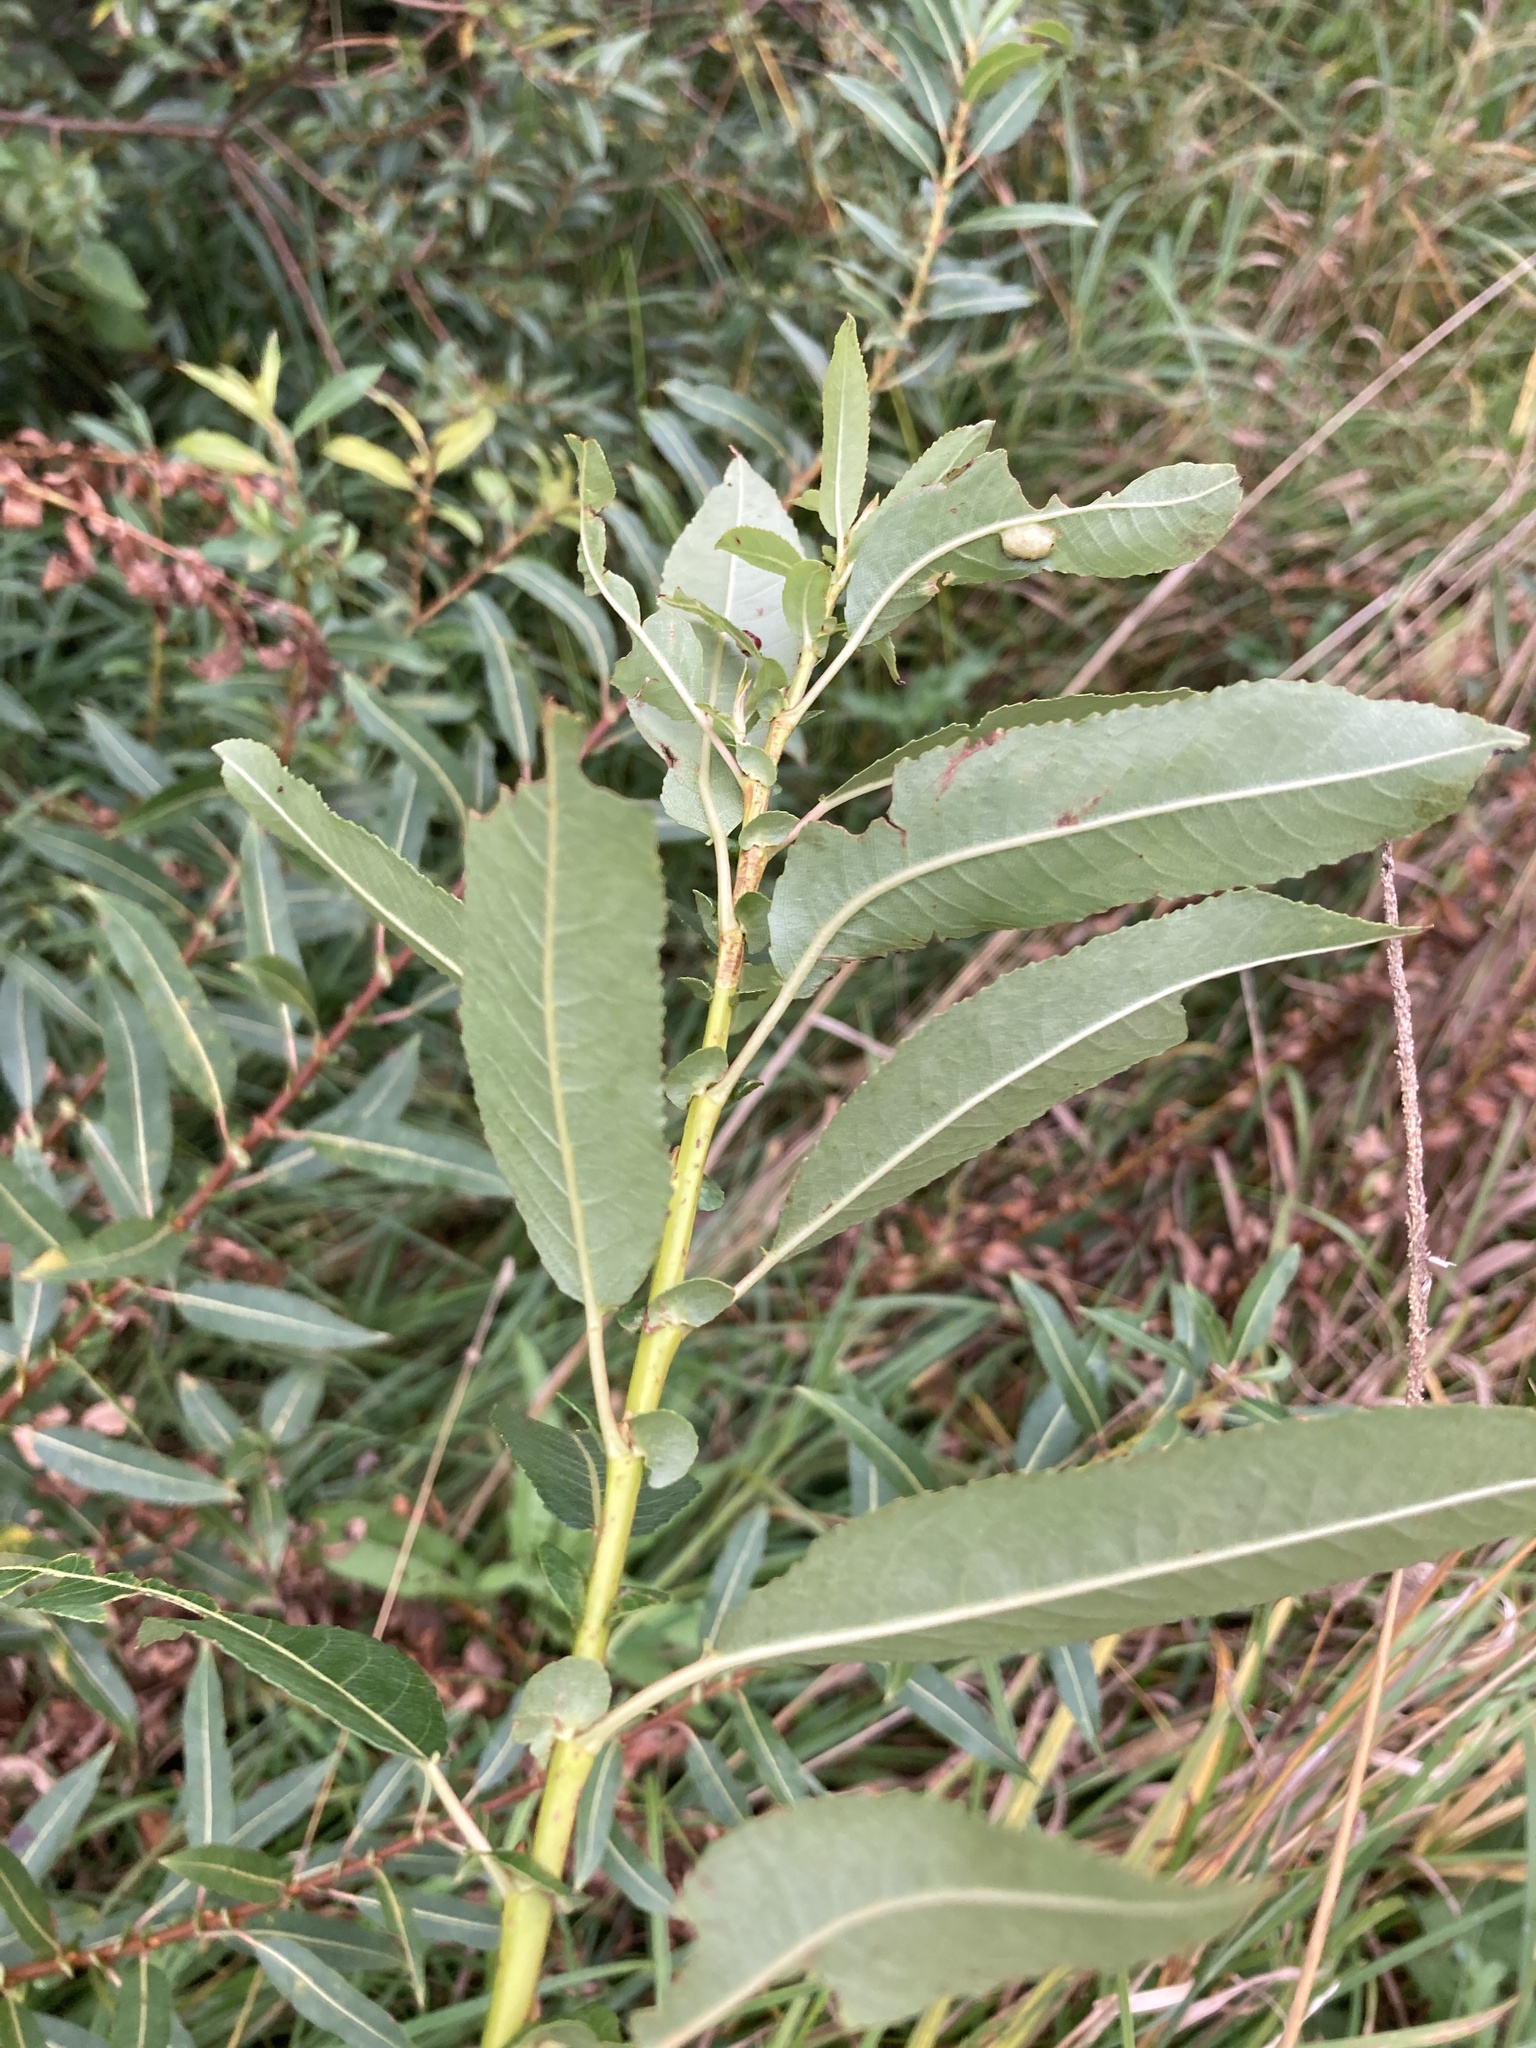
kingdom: Plantae
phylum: Tracheophyta
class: Magnoliopsida
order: Malpighiales
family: Salicaceae
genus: Salix
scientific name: Salix triandra
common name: Almond willow
